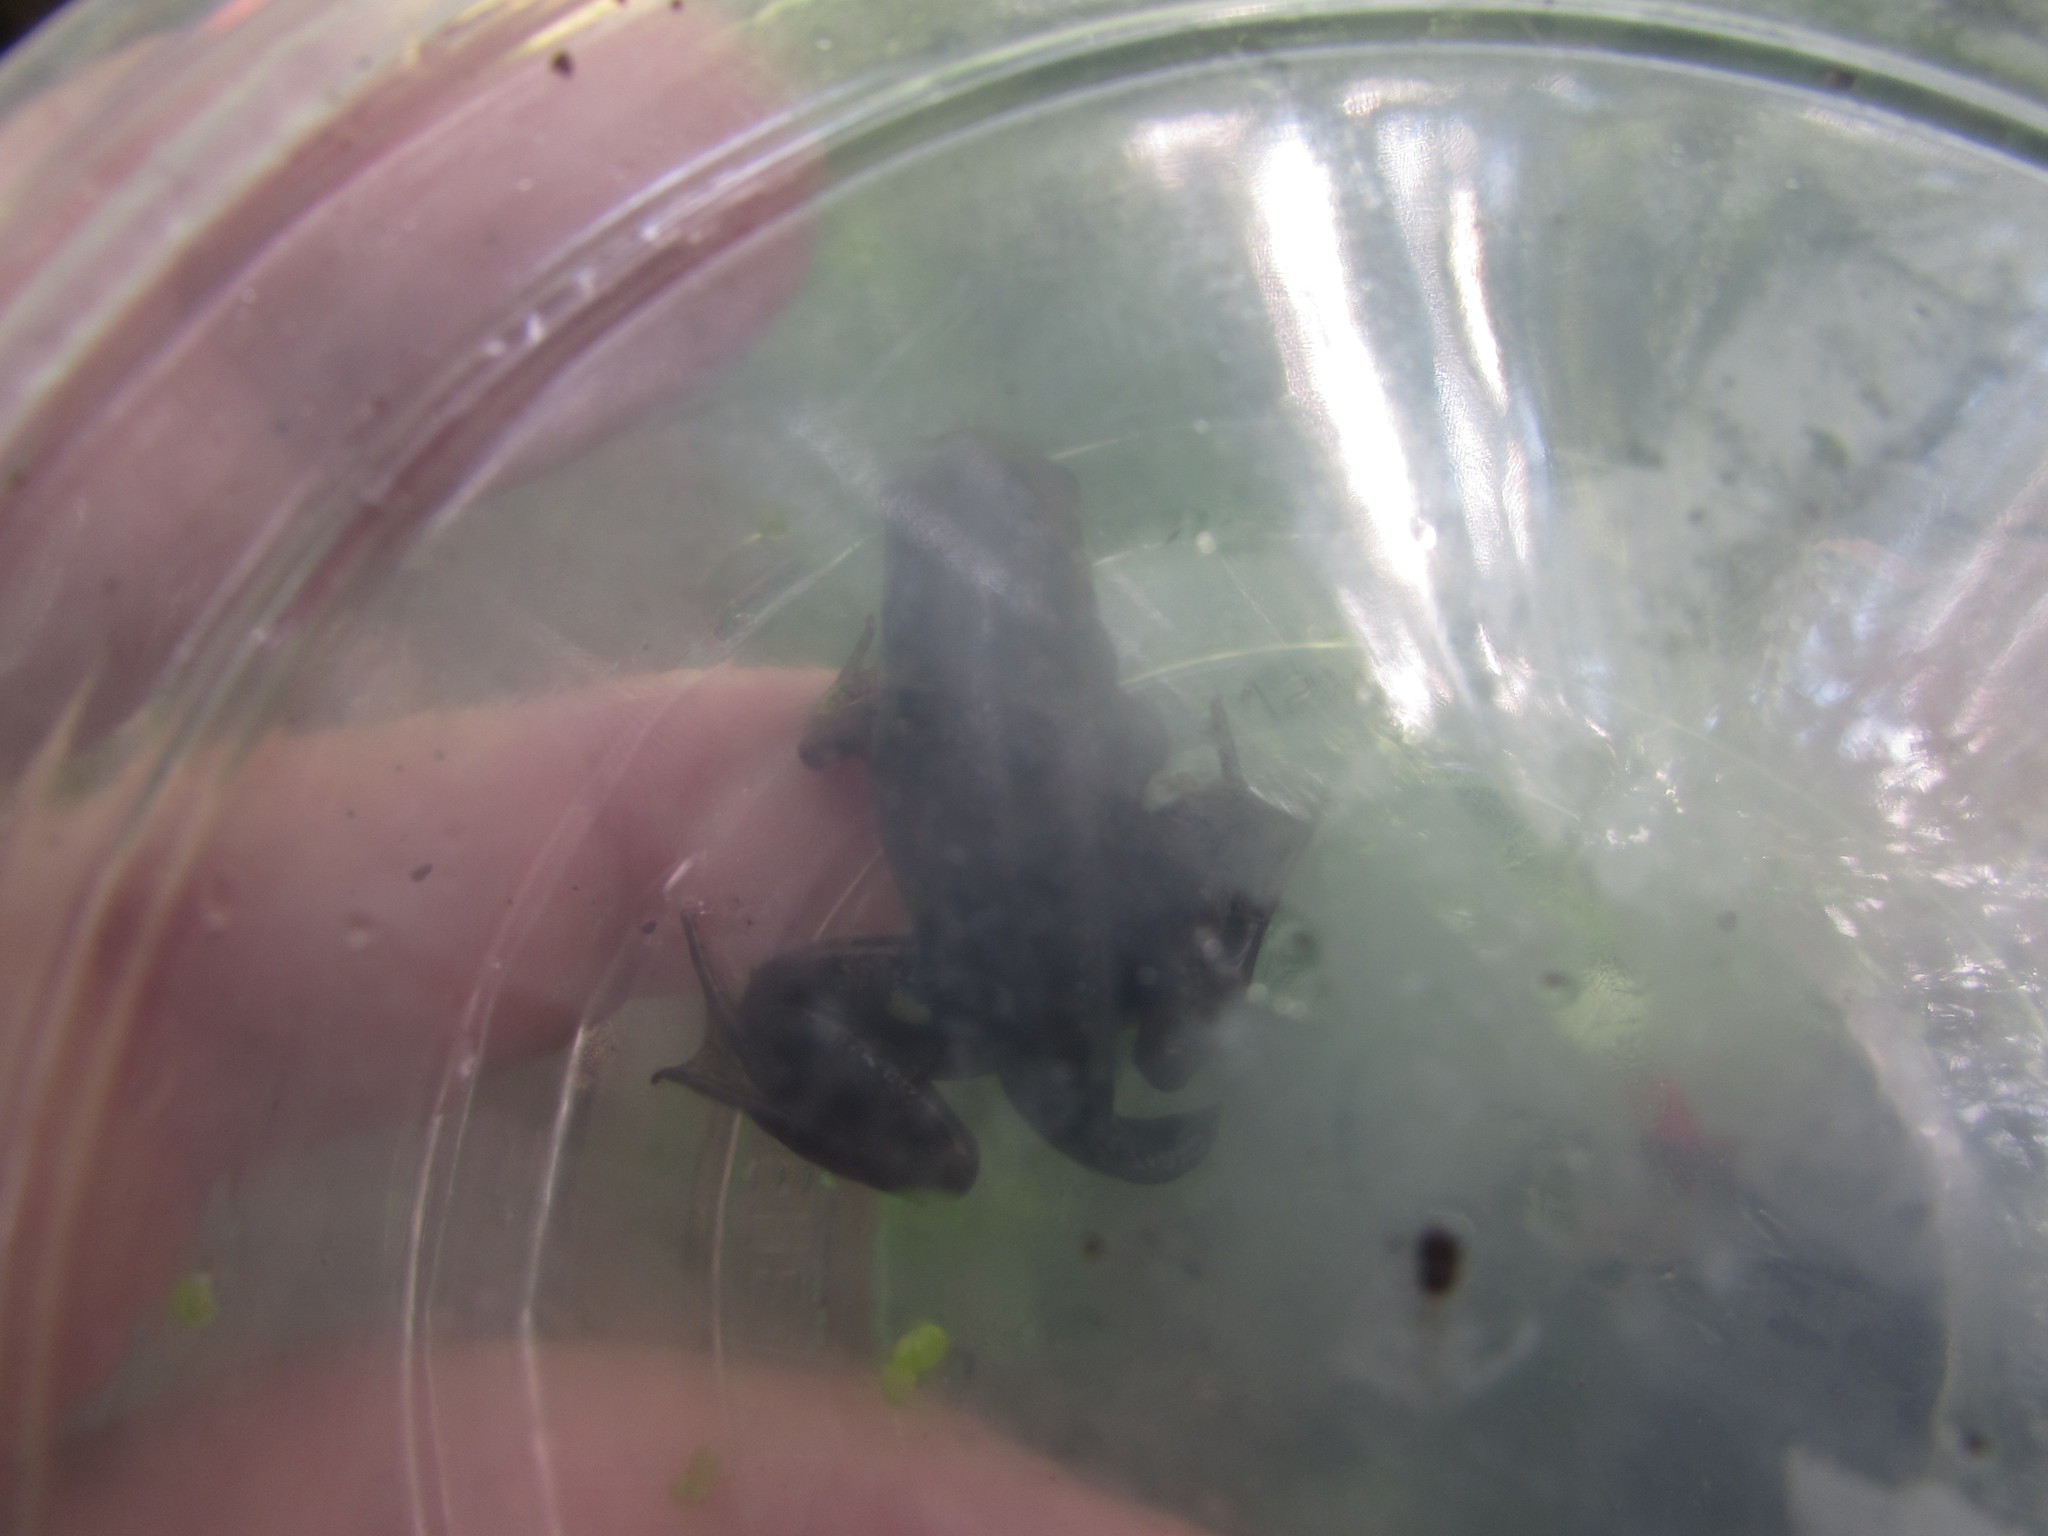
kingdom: Animalia
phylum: Chordata
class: Amphibia
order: Anura
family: Ranidae
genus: Lithobates
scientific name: Lithobates clamitans
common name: Green frog
